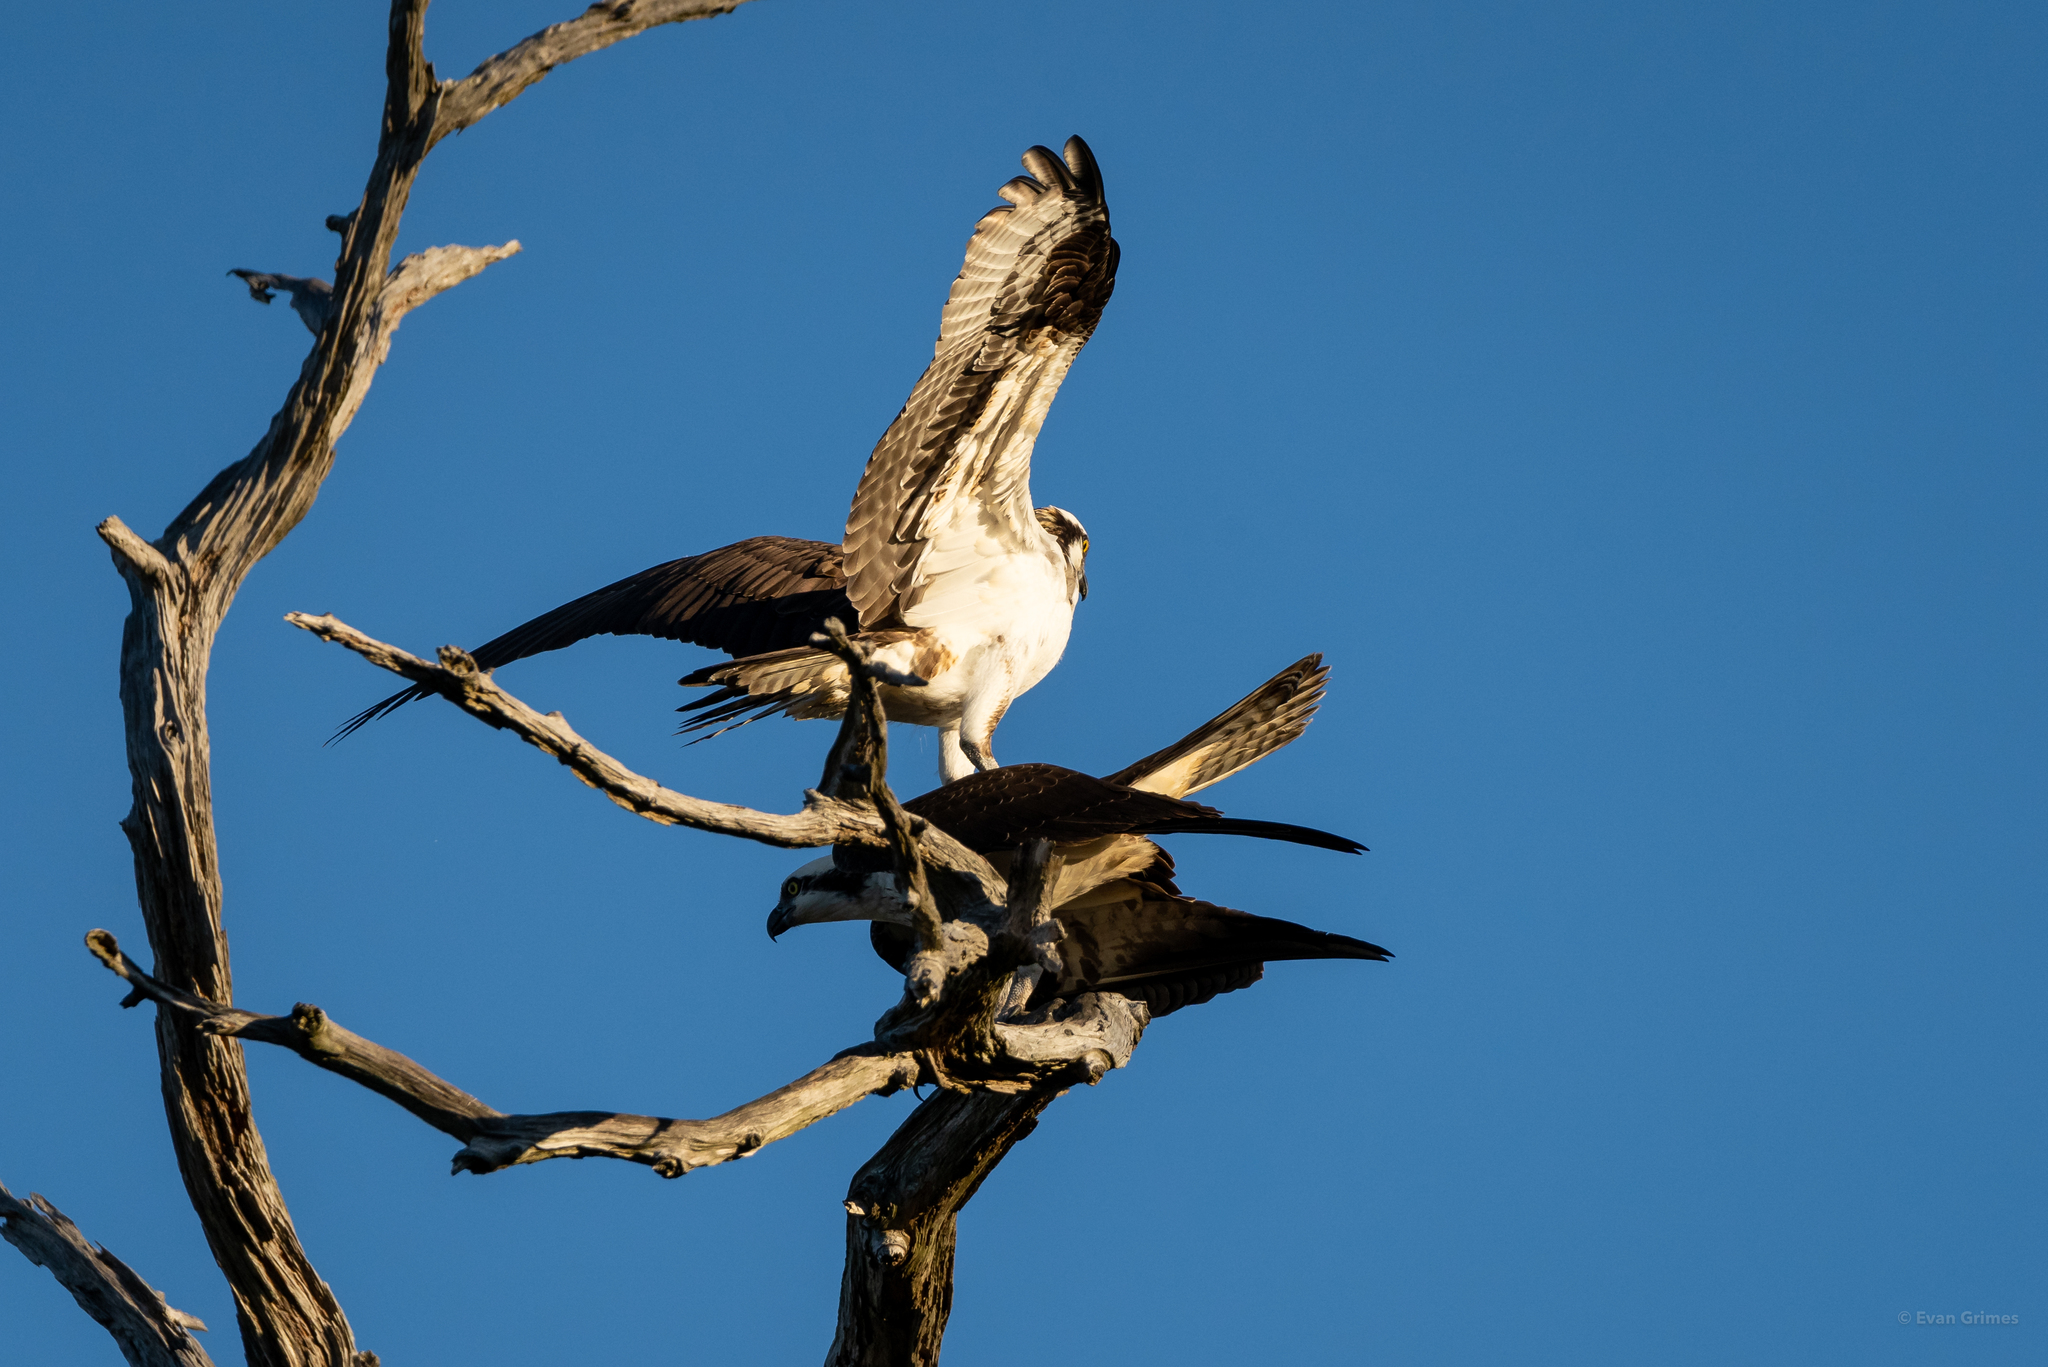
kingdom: Animalia
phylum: Chordata
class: Aves
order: Accipitriformes
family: Pandionidae
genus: Pandion
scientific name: Pandion haliaetus
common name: Osprey
